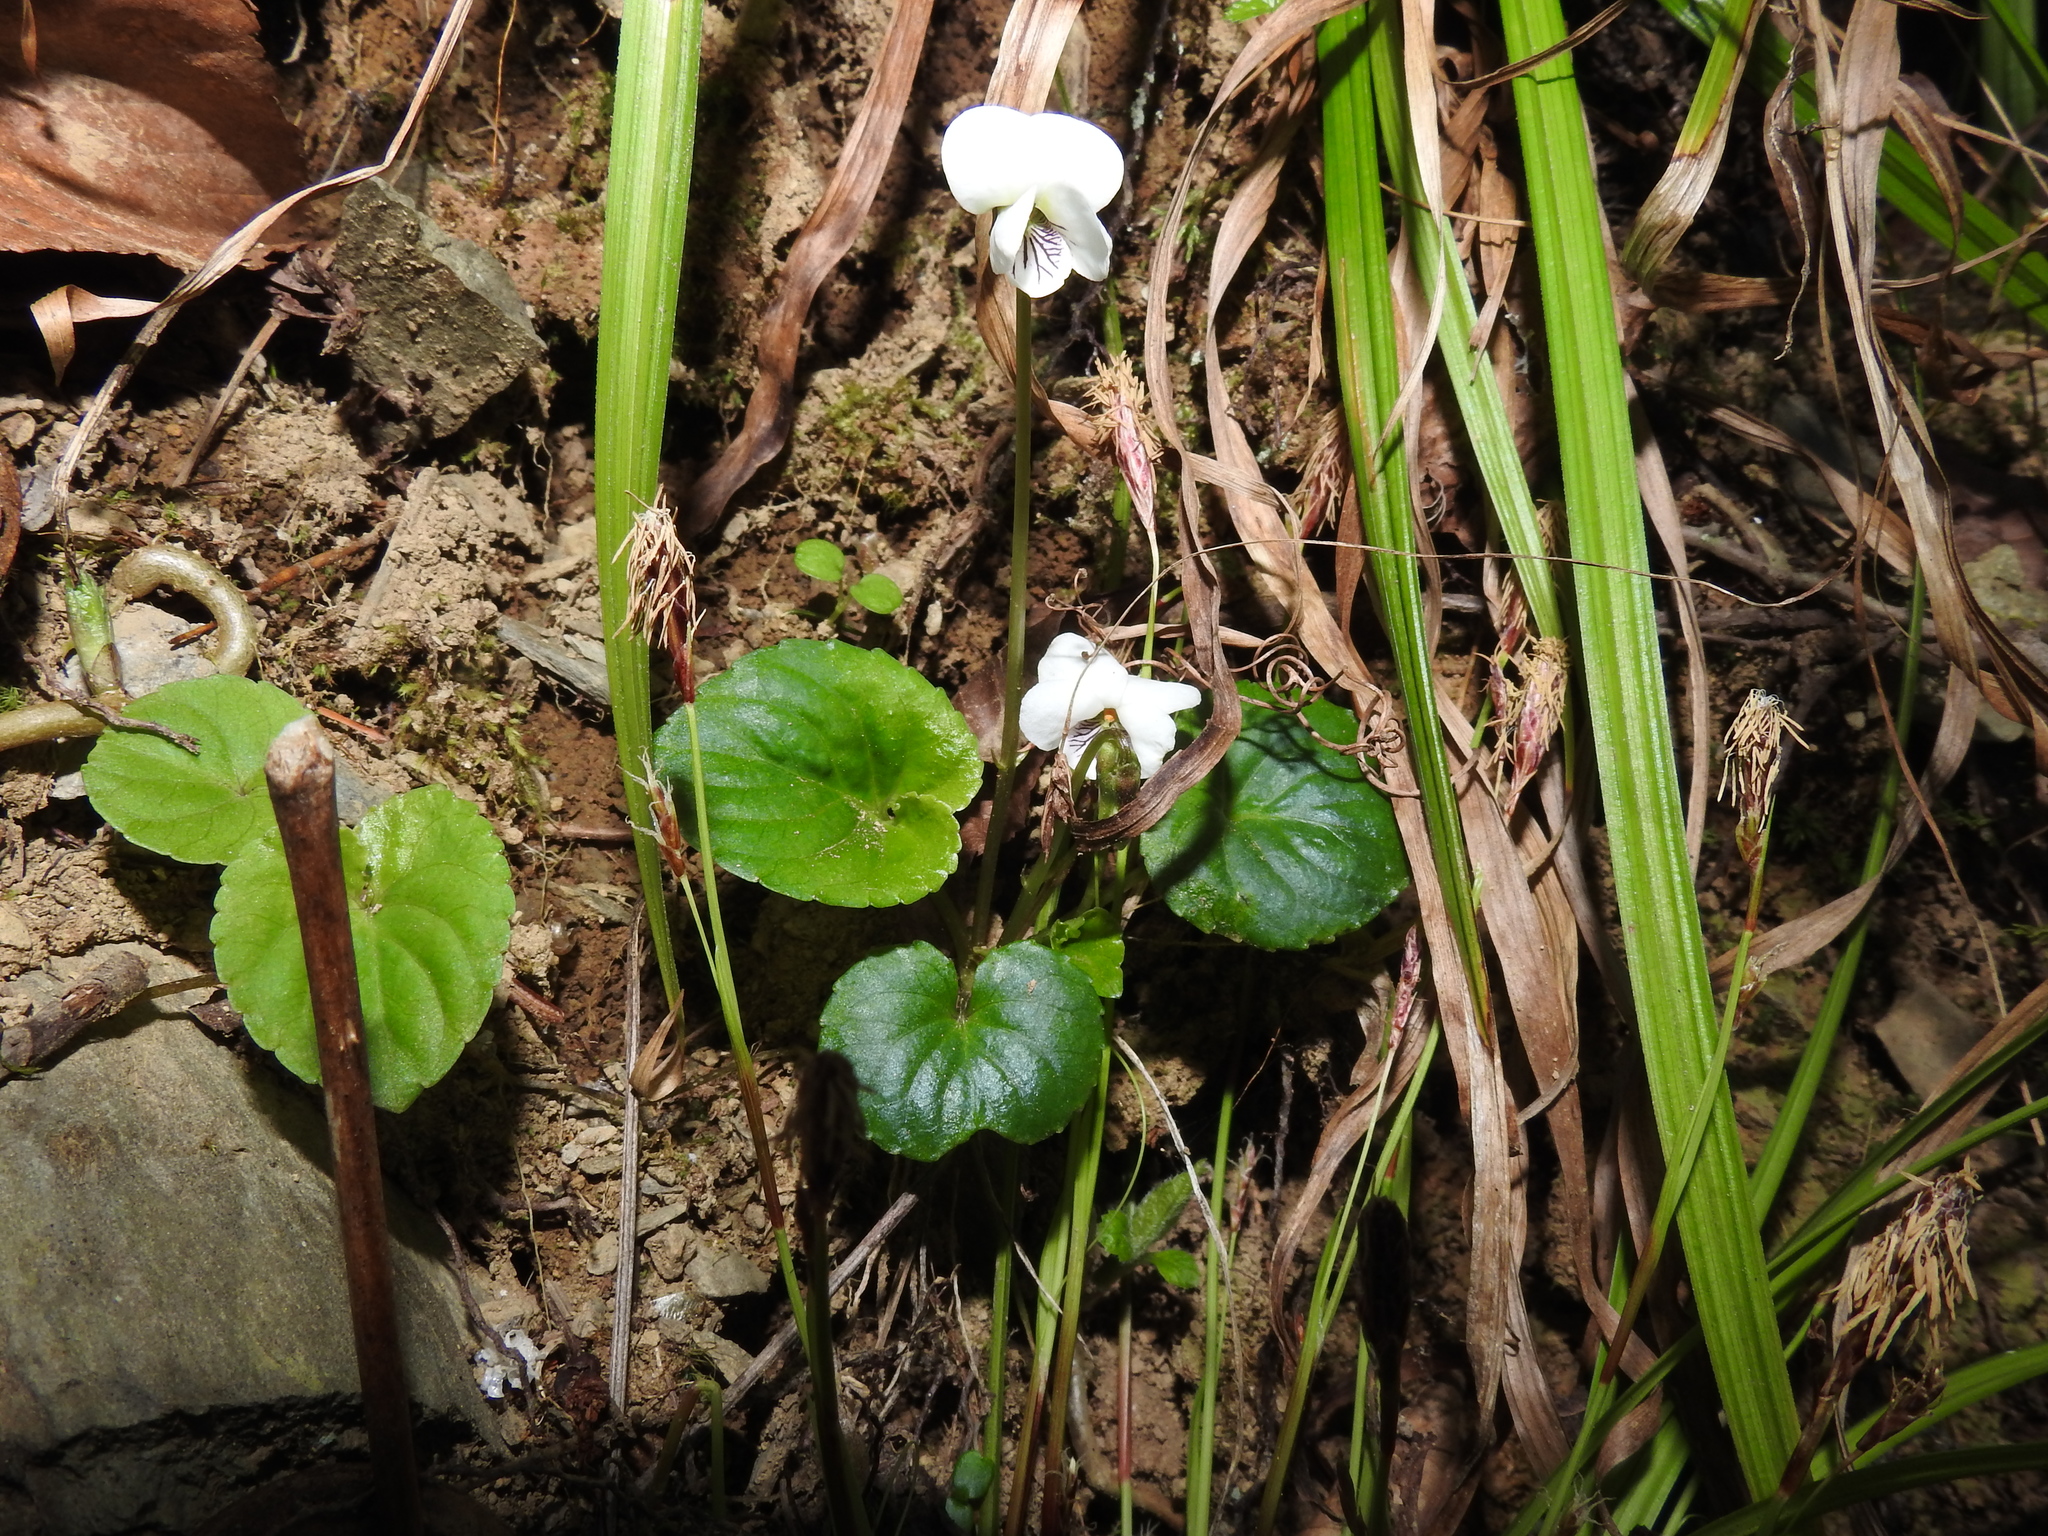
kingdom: Plantae
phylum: Tracheophyta
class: Magnoliopsida
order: Malpighiales
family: Violaceae
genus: Viola
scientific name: Viola blanda
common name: Sweet white violet
